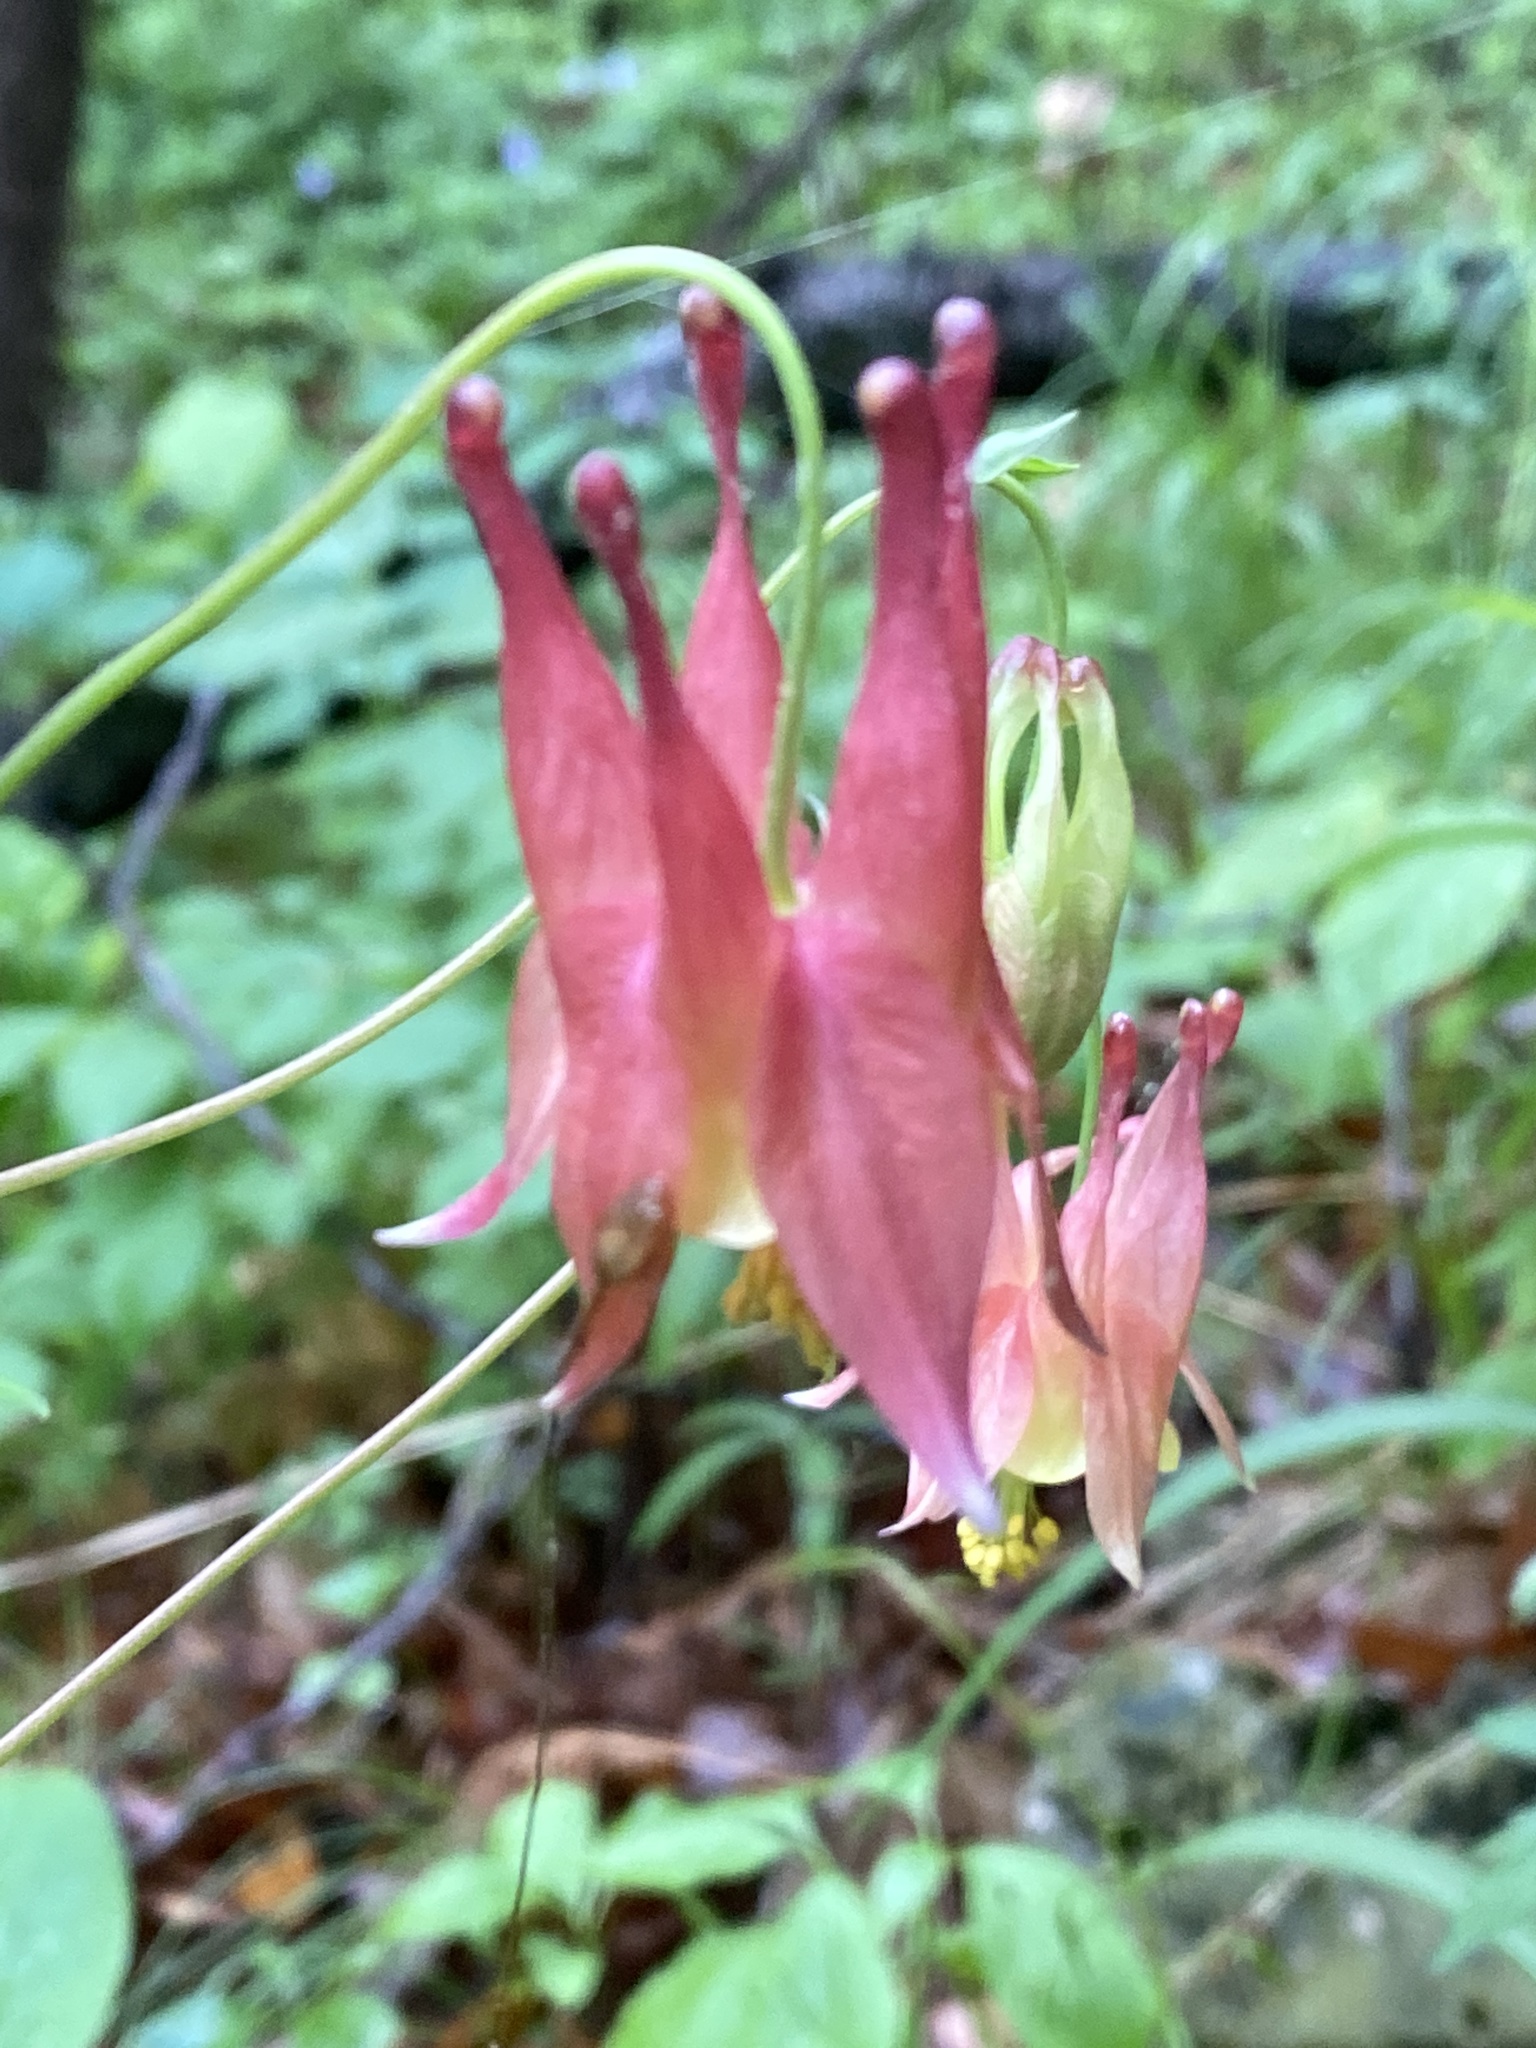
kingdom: Plantae
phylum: Tracheophyta
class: Magnoliopsida
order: Ranunculales
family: Ranunculaceae
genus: Aquilegia
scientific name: Aquilegia canadensis
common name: American columbine
